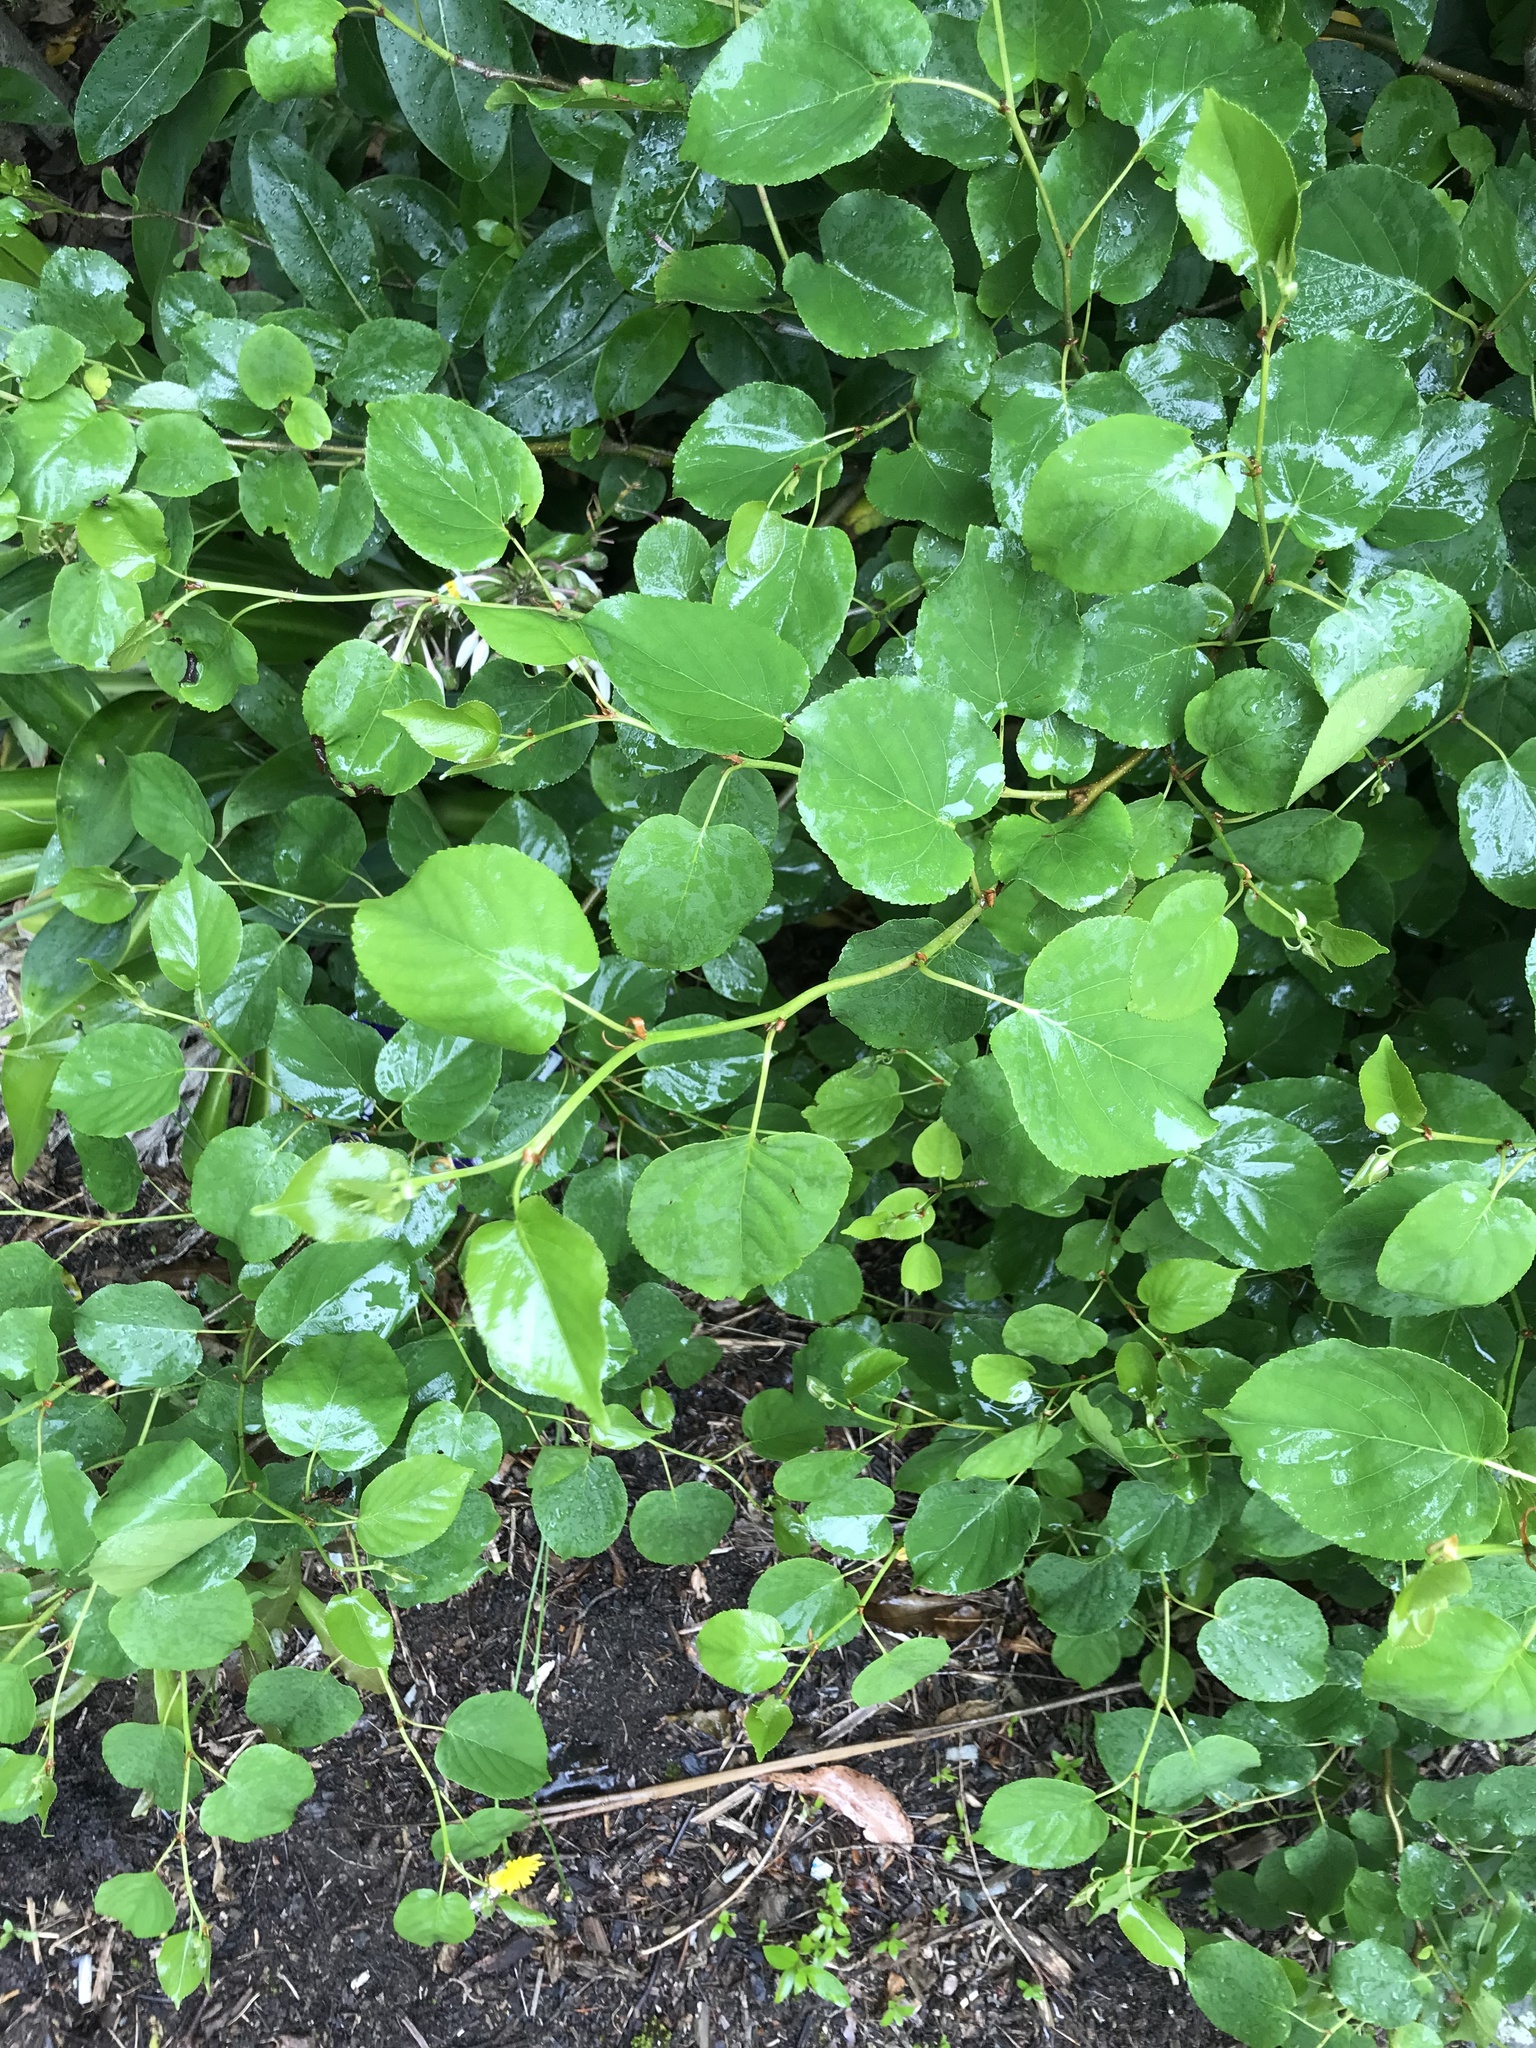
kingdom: Plantae
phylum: Tracheophyta
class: Magnoliopsida
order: Fagales
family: Betulaceae
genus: Alnus
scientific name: Alnus glutinosa
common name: Black alder
